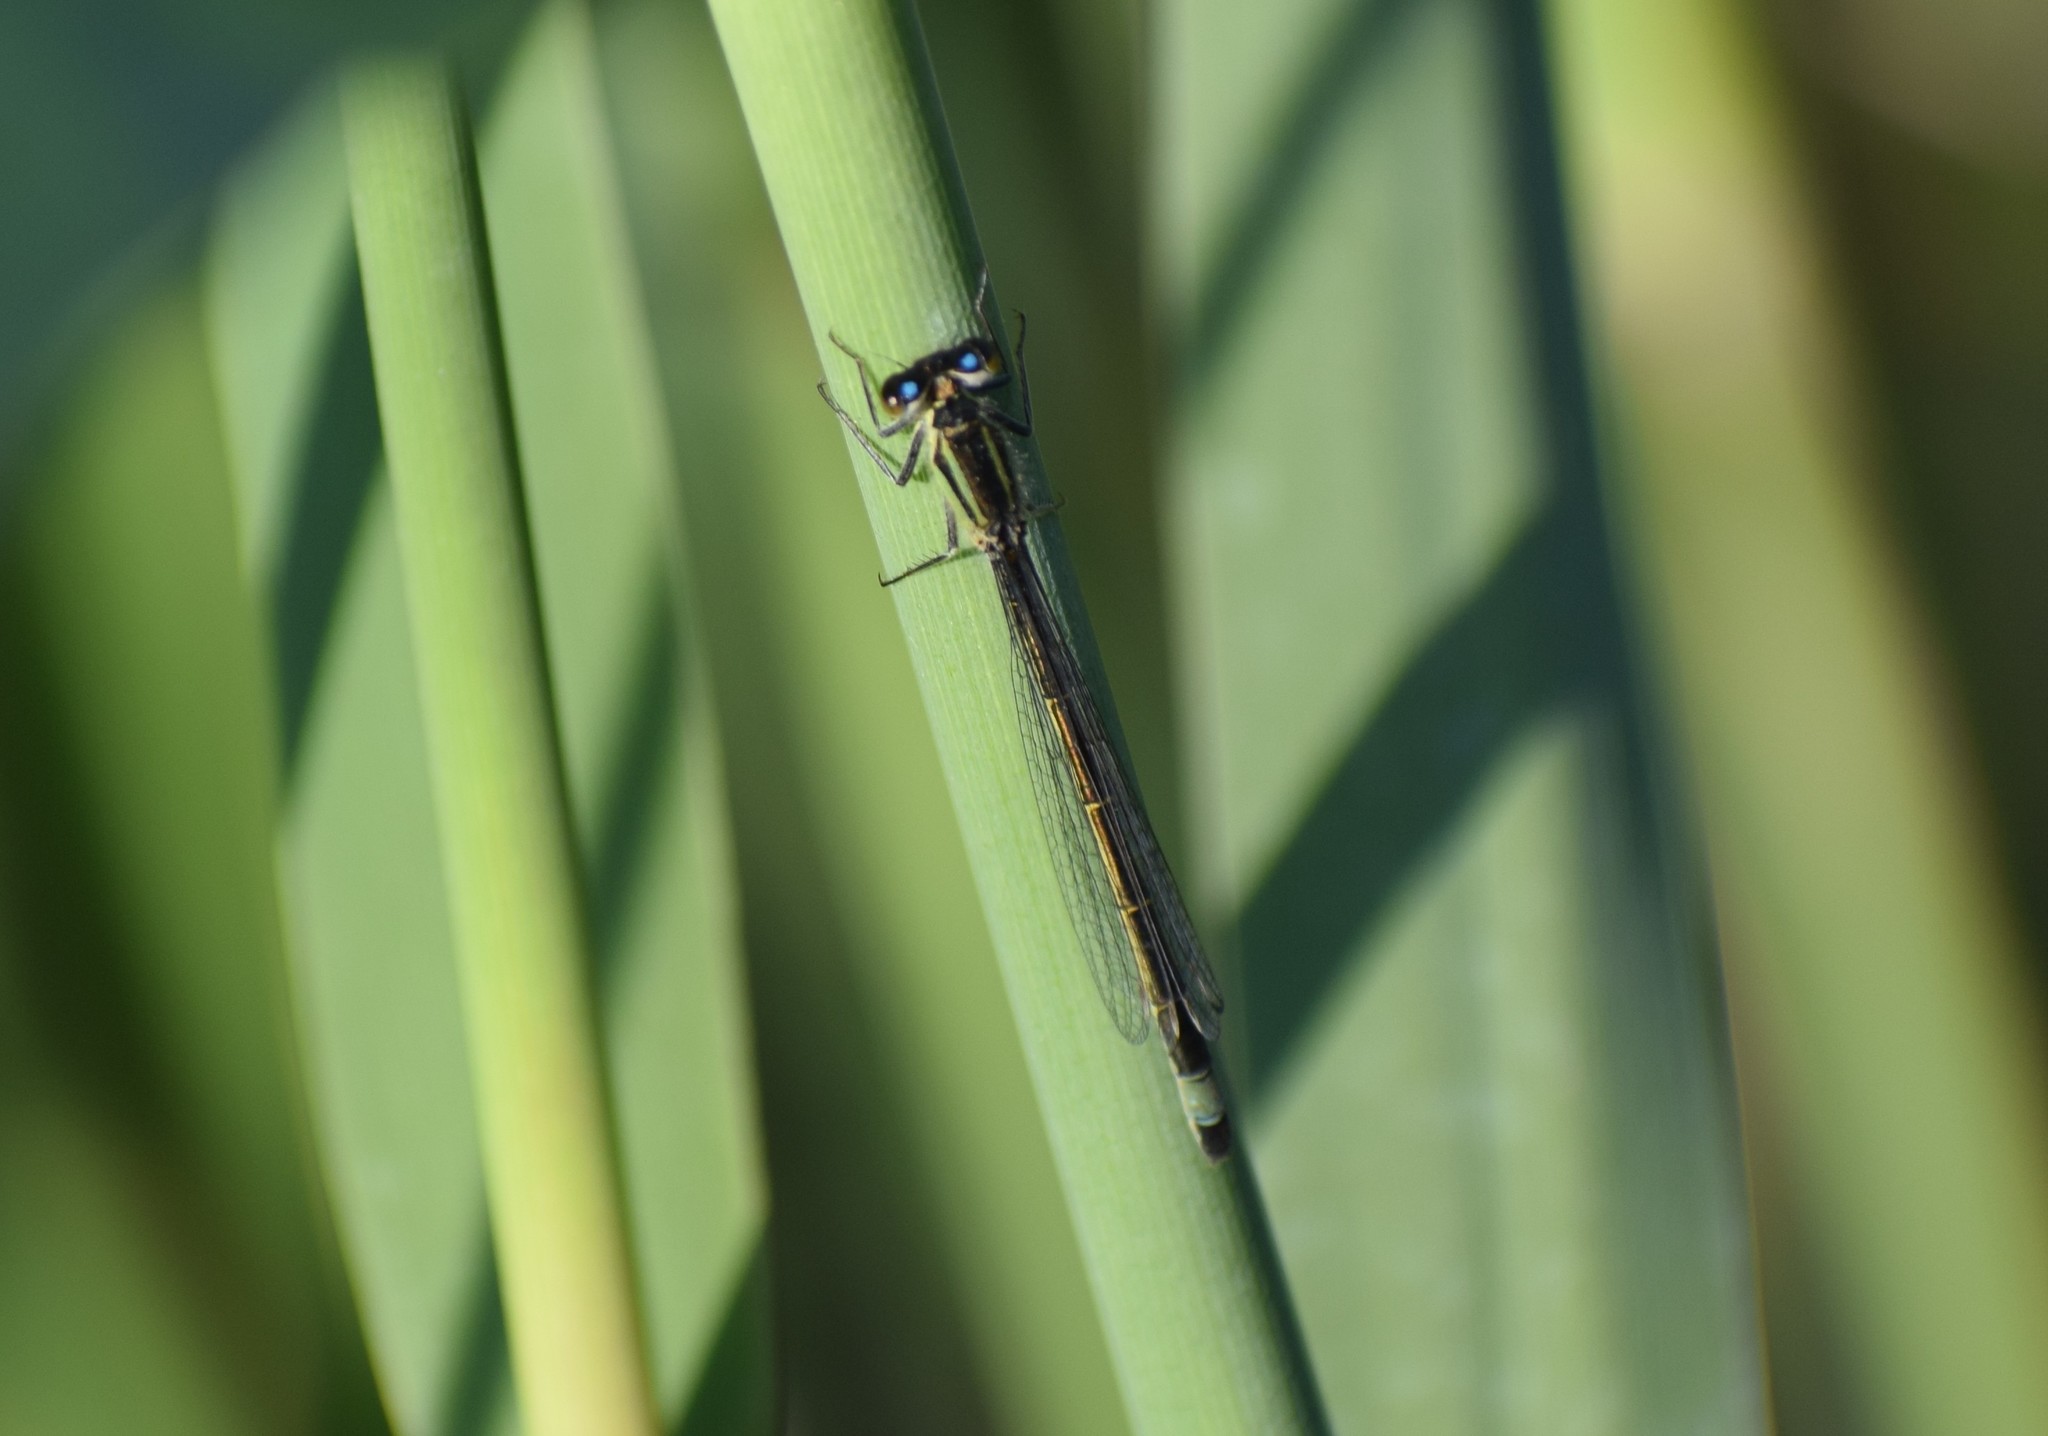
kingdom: Animalia
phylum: Arthropoda
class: Insecta
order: Odonata
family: Coenagrionidae
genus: Ischnura
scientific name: Ischnura elegans
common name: Blue-tailed damselfly
